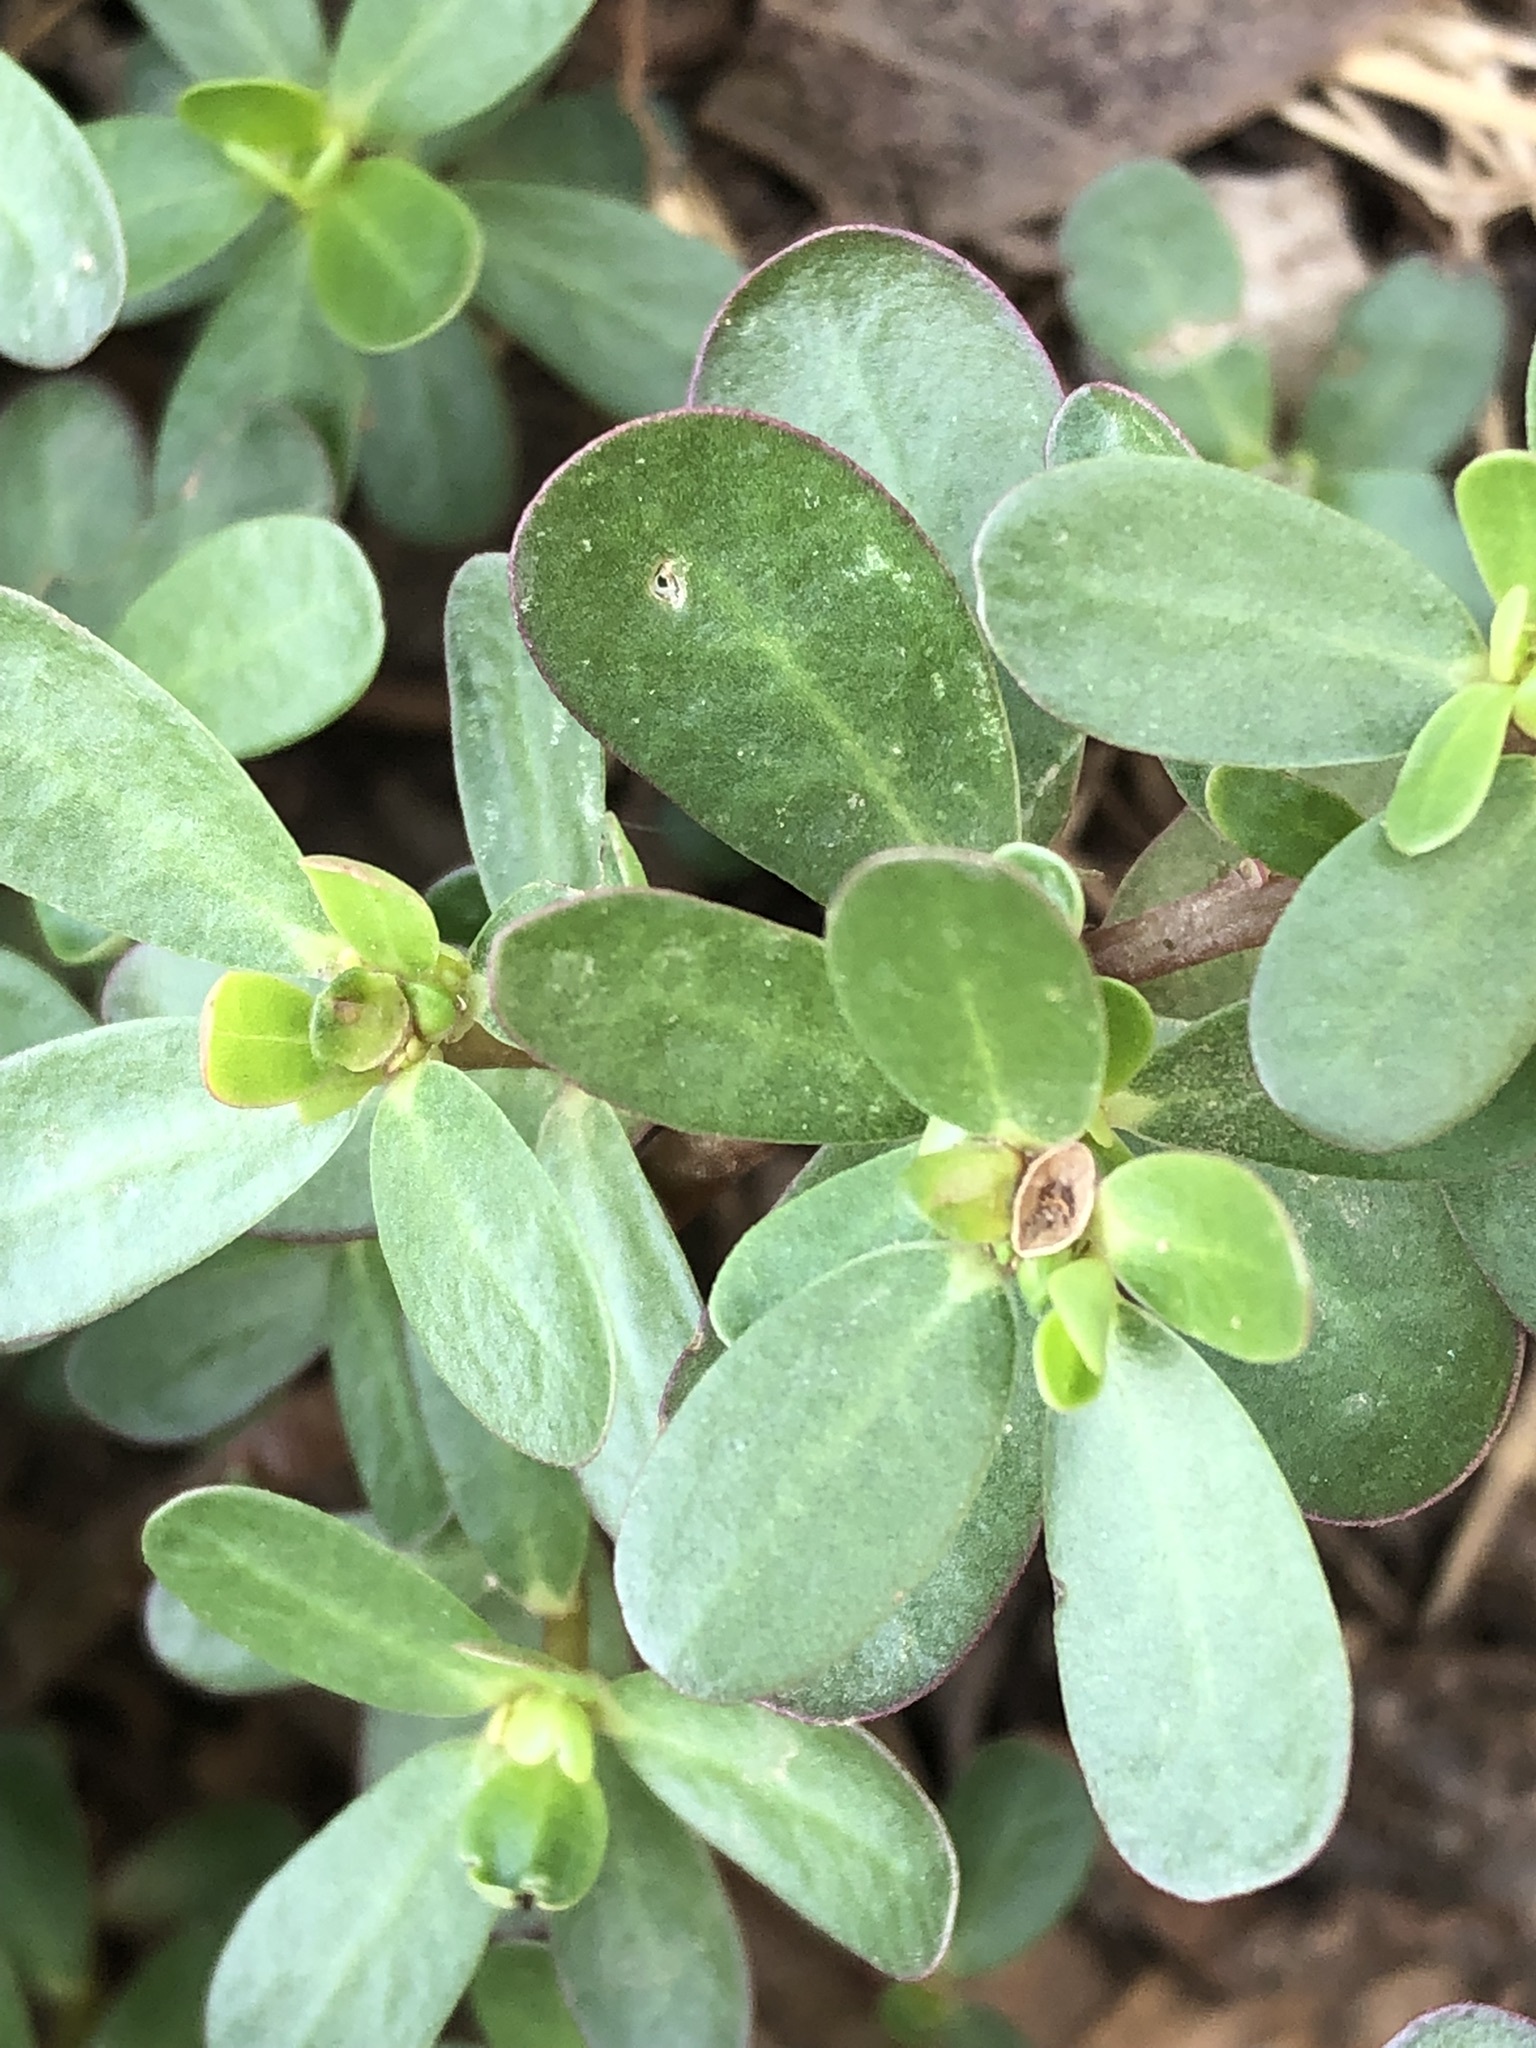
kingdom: Plantae
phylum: Tracheophyta
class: Magnoliopsida
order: Caryophyllales
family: Portulacaceae
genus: Portulaca
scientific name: Portulaca oleracea
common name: Common purslane
